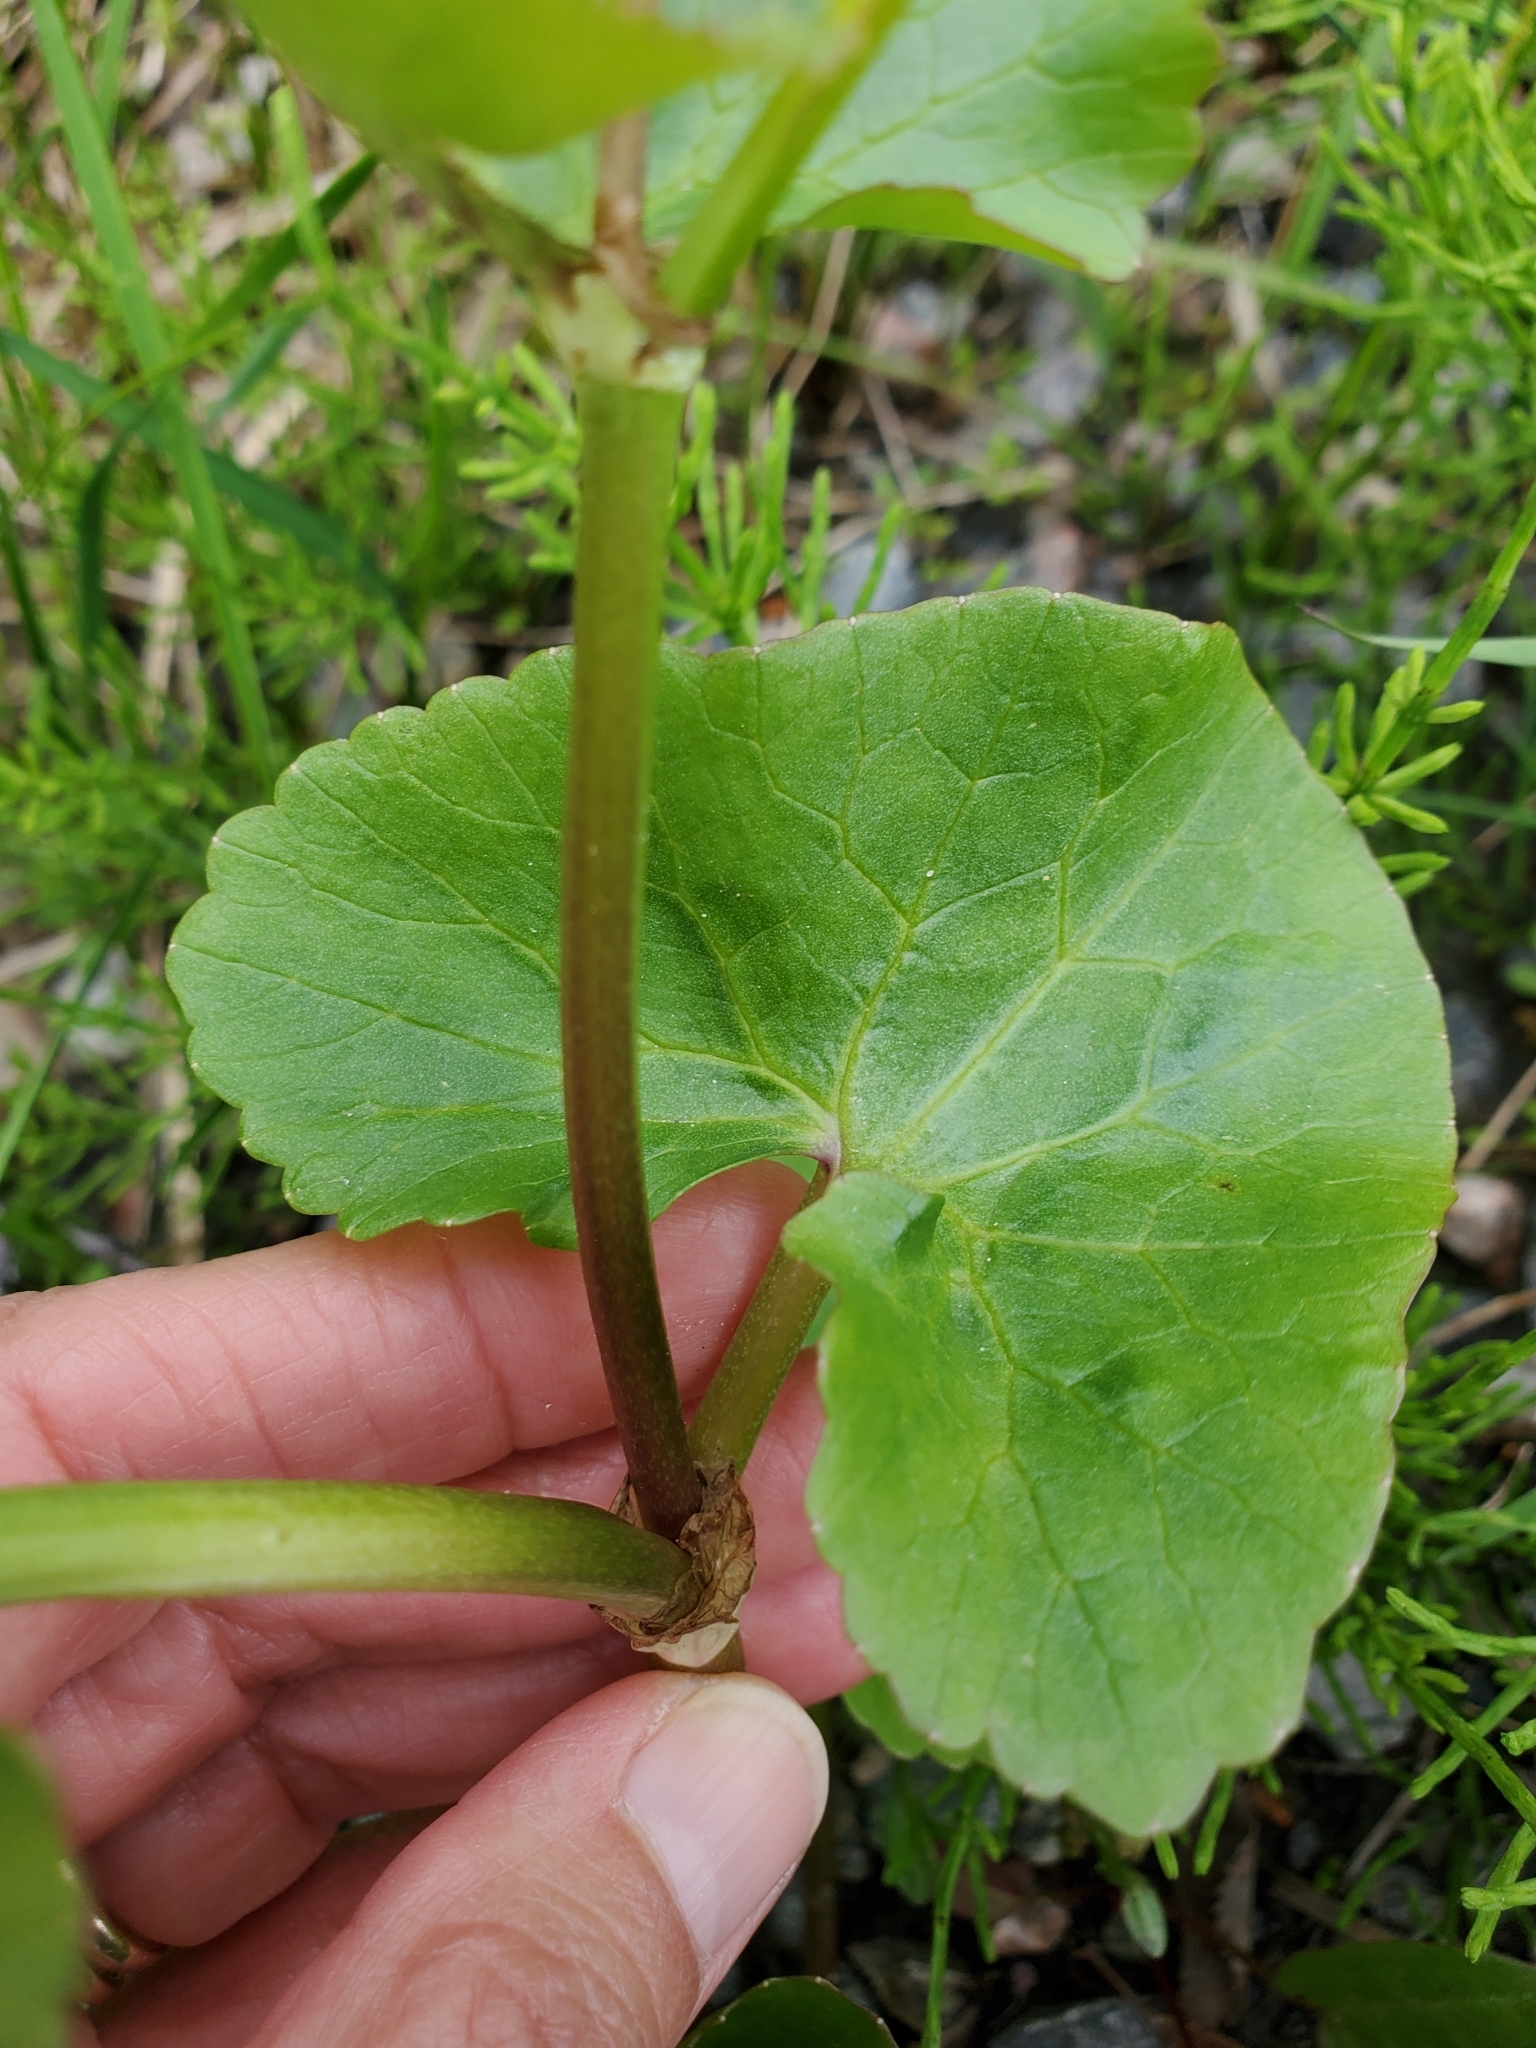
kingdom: Plantae
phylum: Tracheophyta
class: Magnoliopsida
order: Ranunculales
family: Ranunculaceae
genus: Caltha
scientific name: Caltha palustris
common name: Marsh marigold
